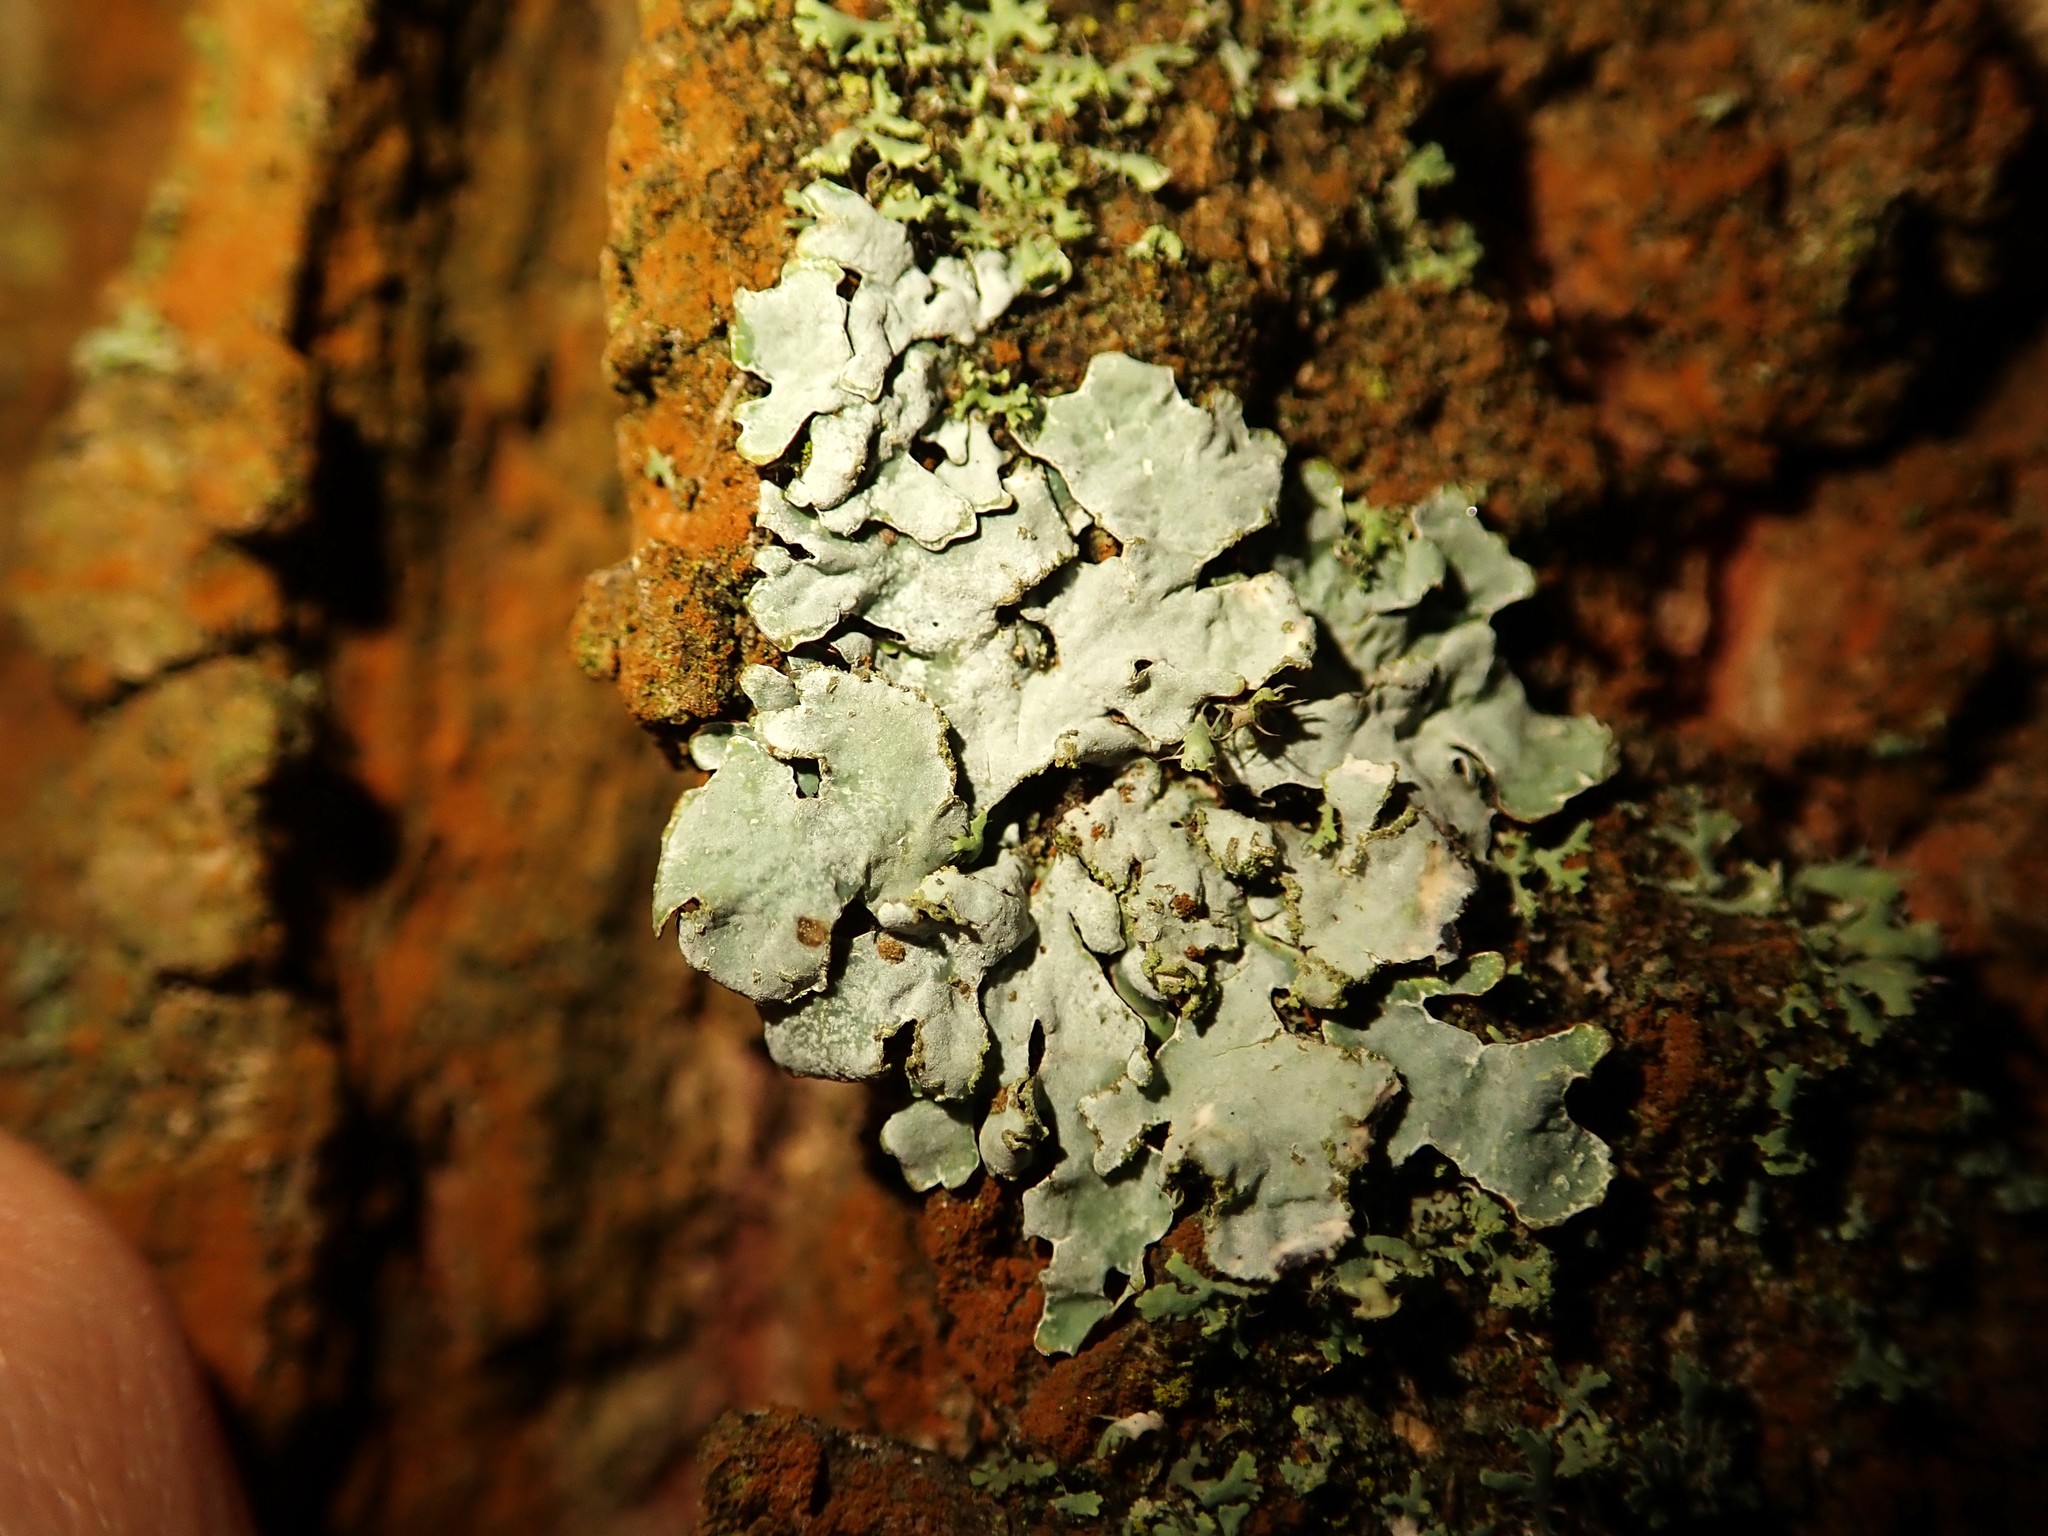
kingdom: Fungi
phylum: Ascomycota
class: Lecanoromycetes
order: Lecanorales
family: Parmeliaceae
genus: Parmelia
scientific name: Parmelia sulcata
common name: Netted shield lichen
